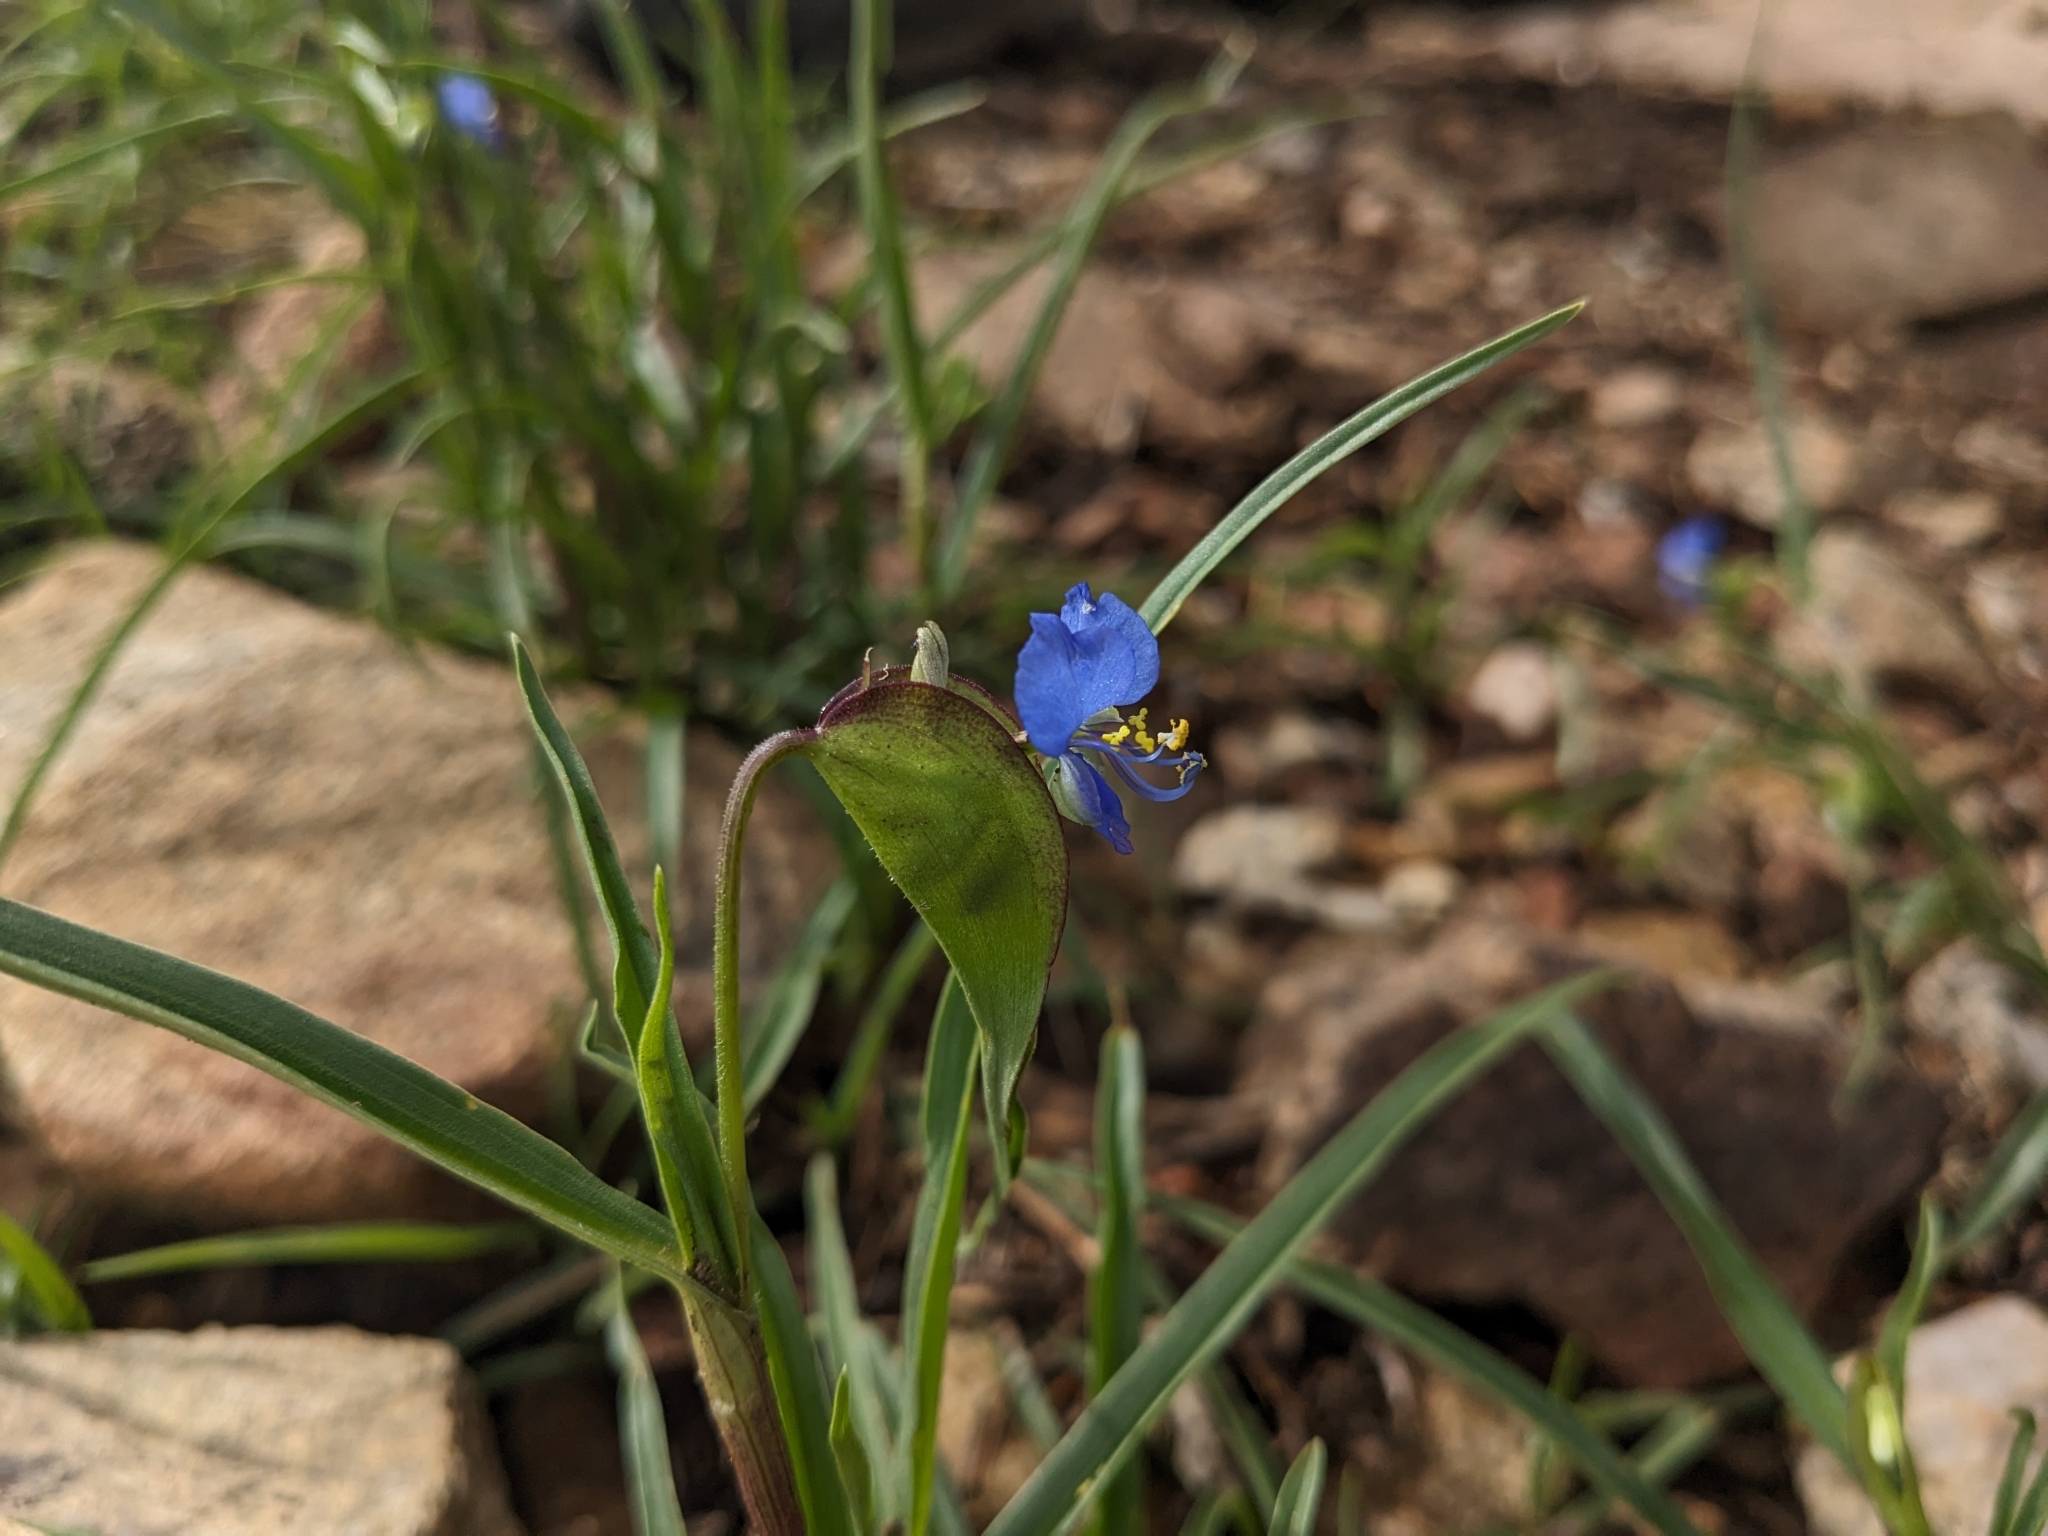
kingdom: Plantae
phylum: Tracheophyta
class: Liliopsida
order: Commelinales
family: Commelinaceae
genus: Commelina
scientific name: Commelina dianthifolia
